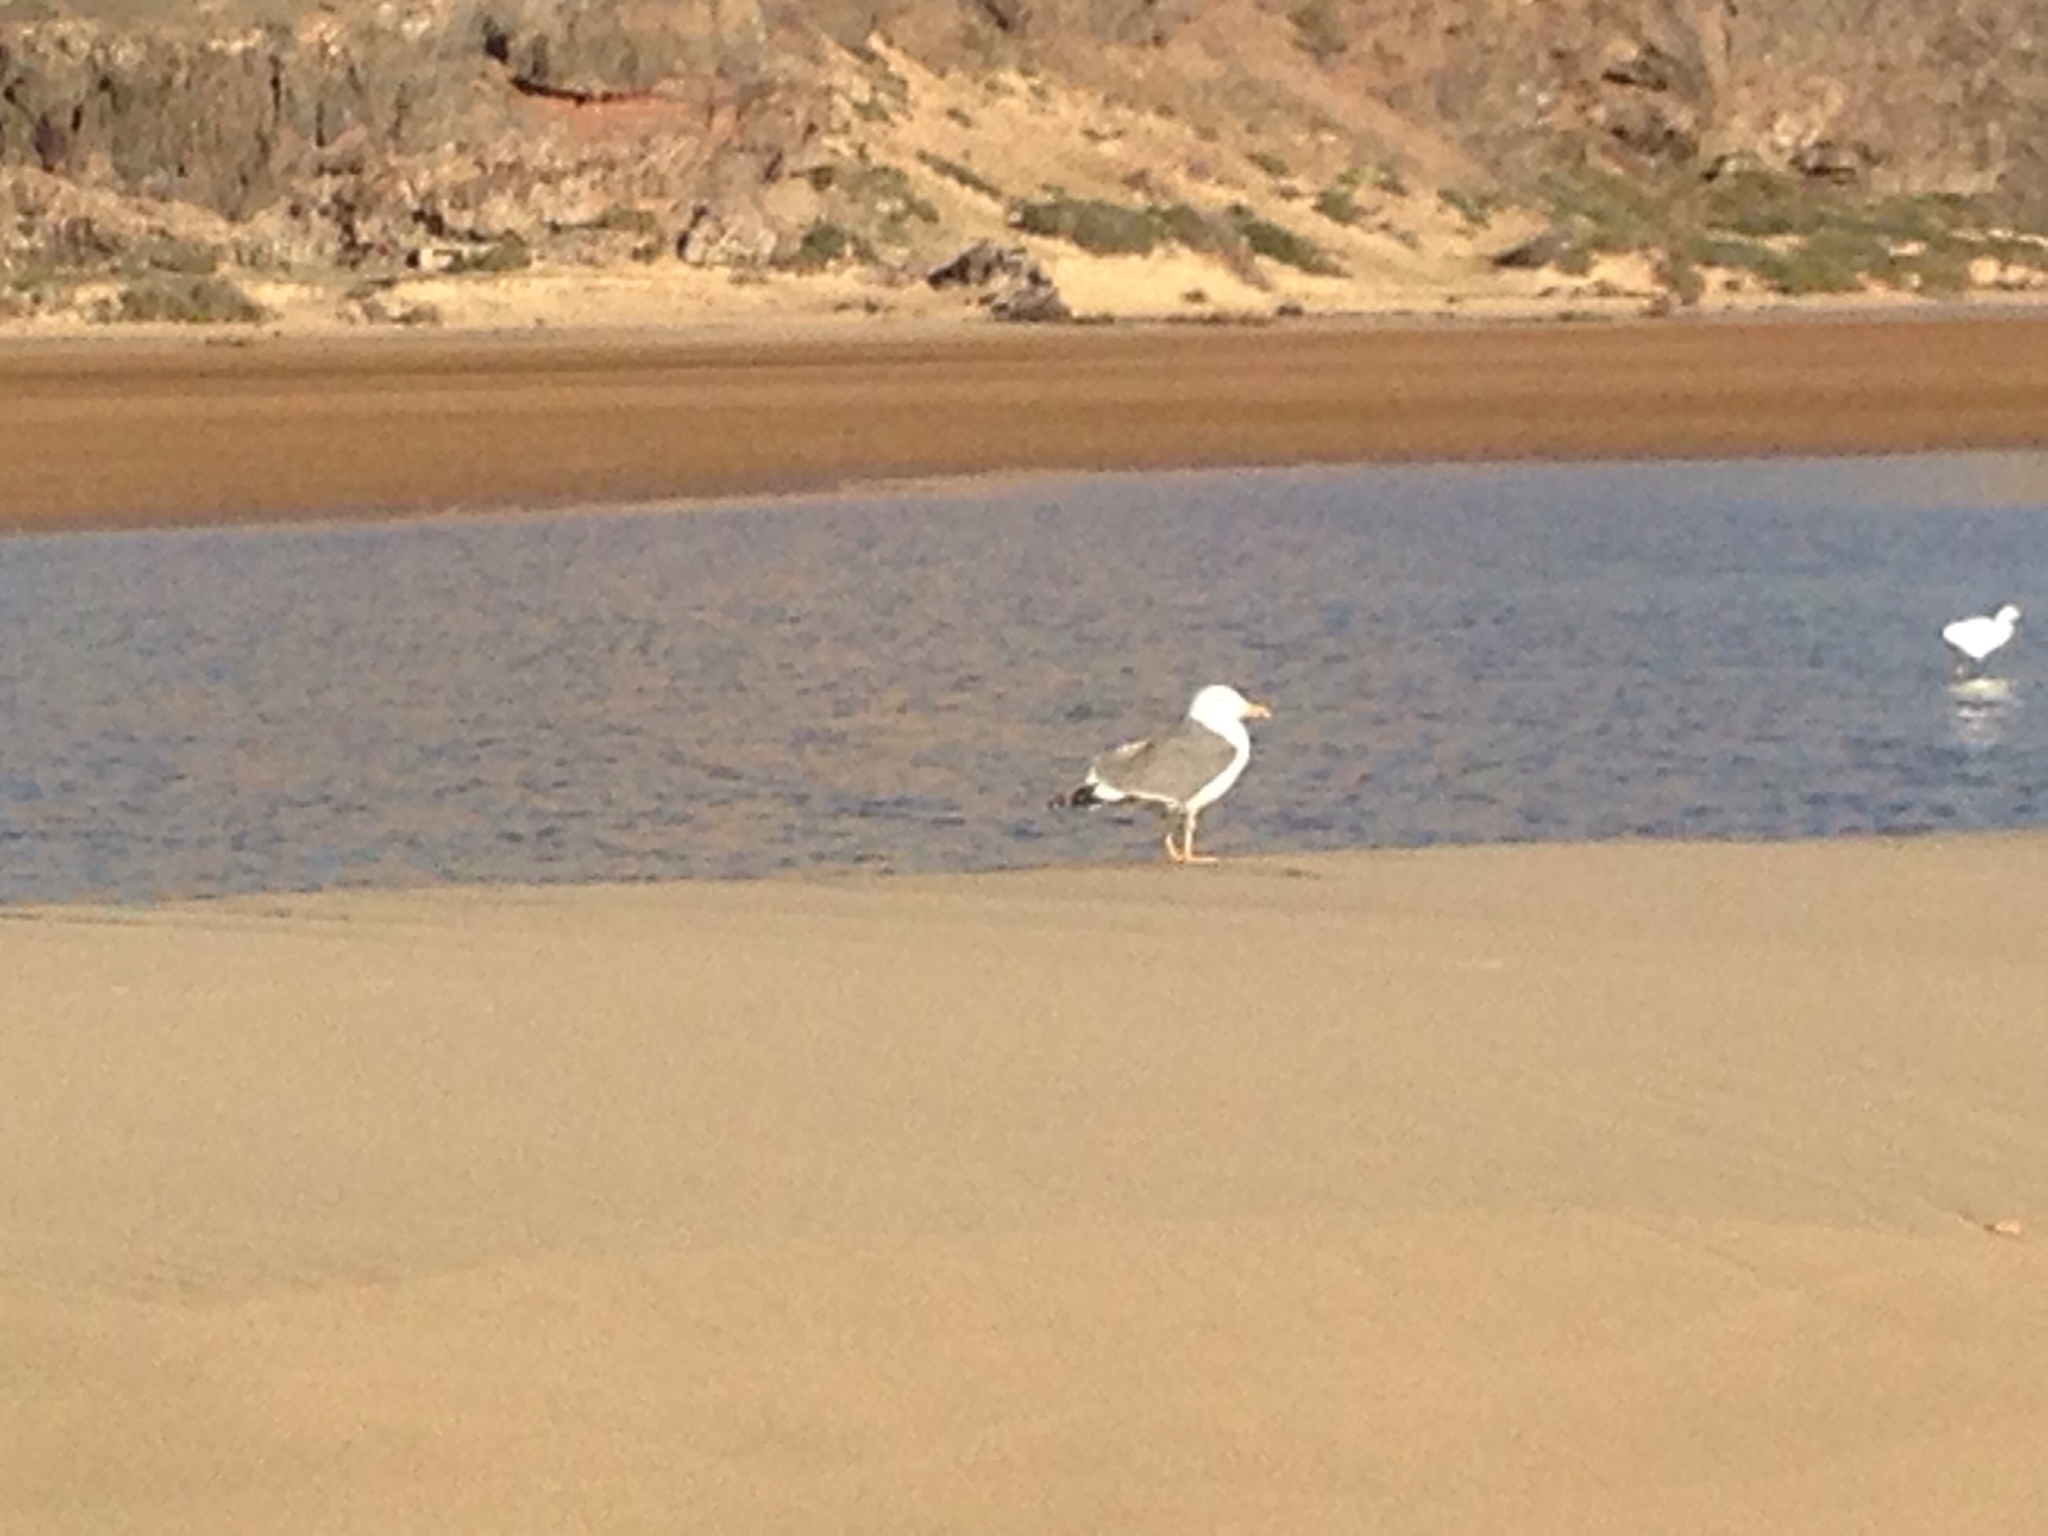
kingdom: Animalia
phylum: Chordata
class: Aves
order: Charadriiformes
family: Laridae
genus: Larus
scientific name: Larus michahellis
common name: Yellow-legged gull
